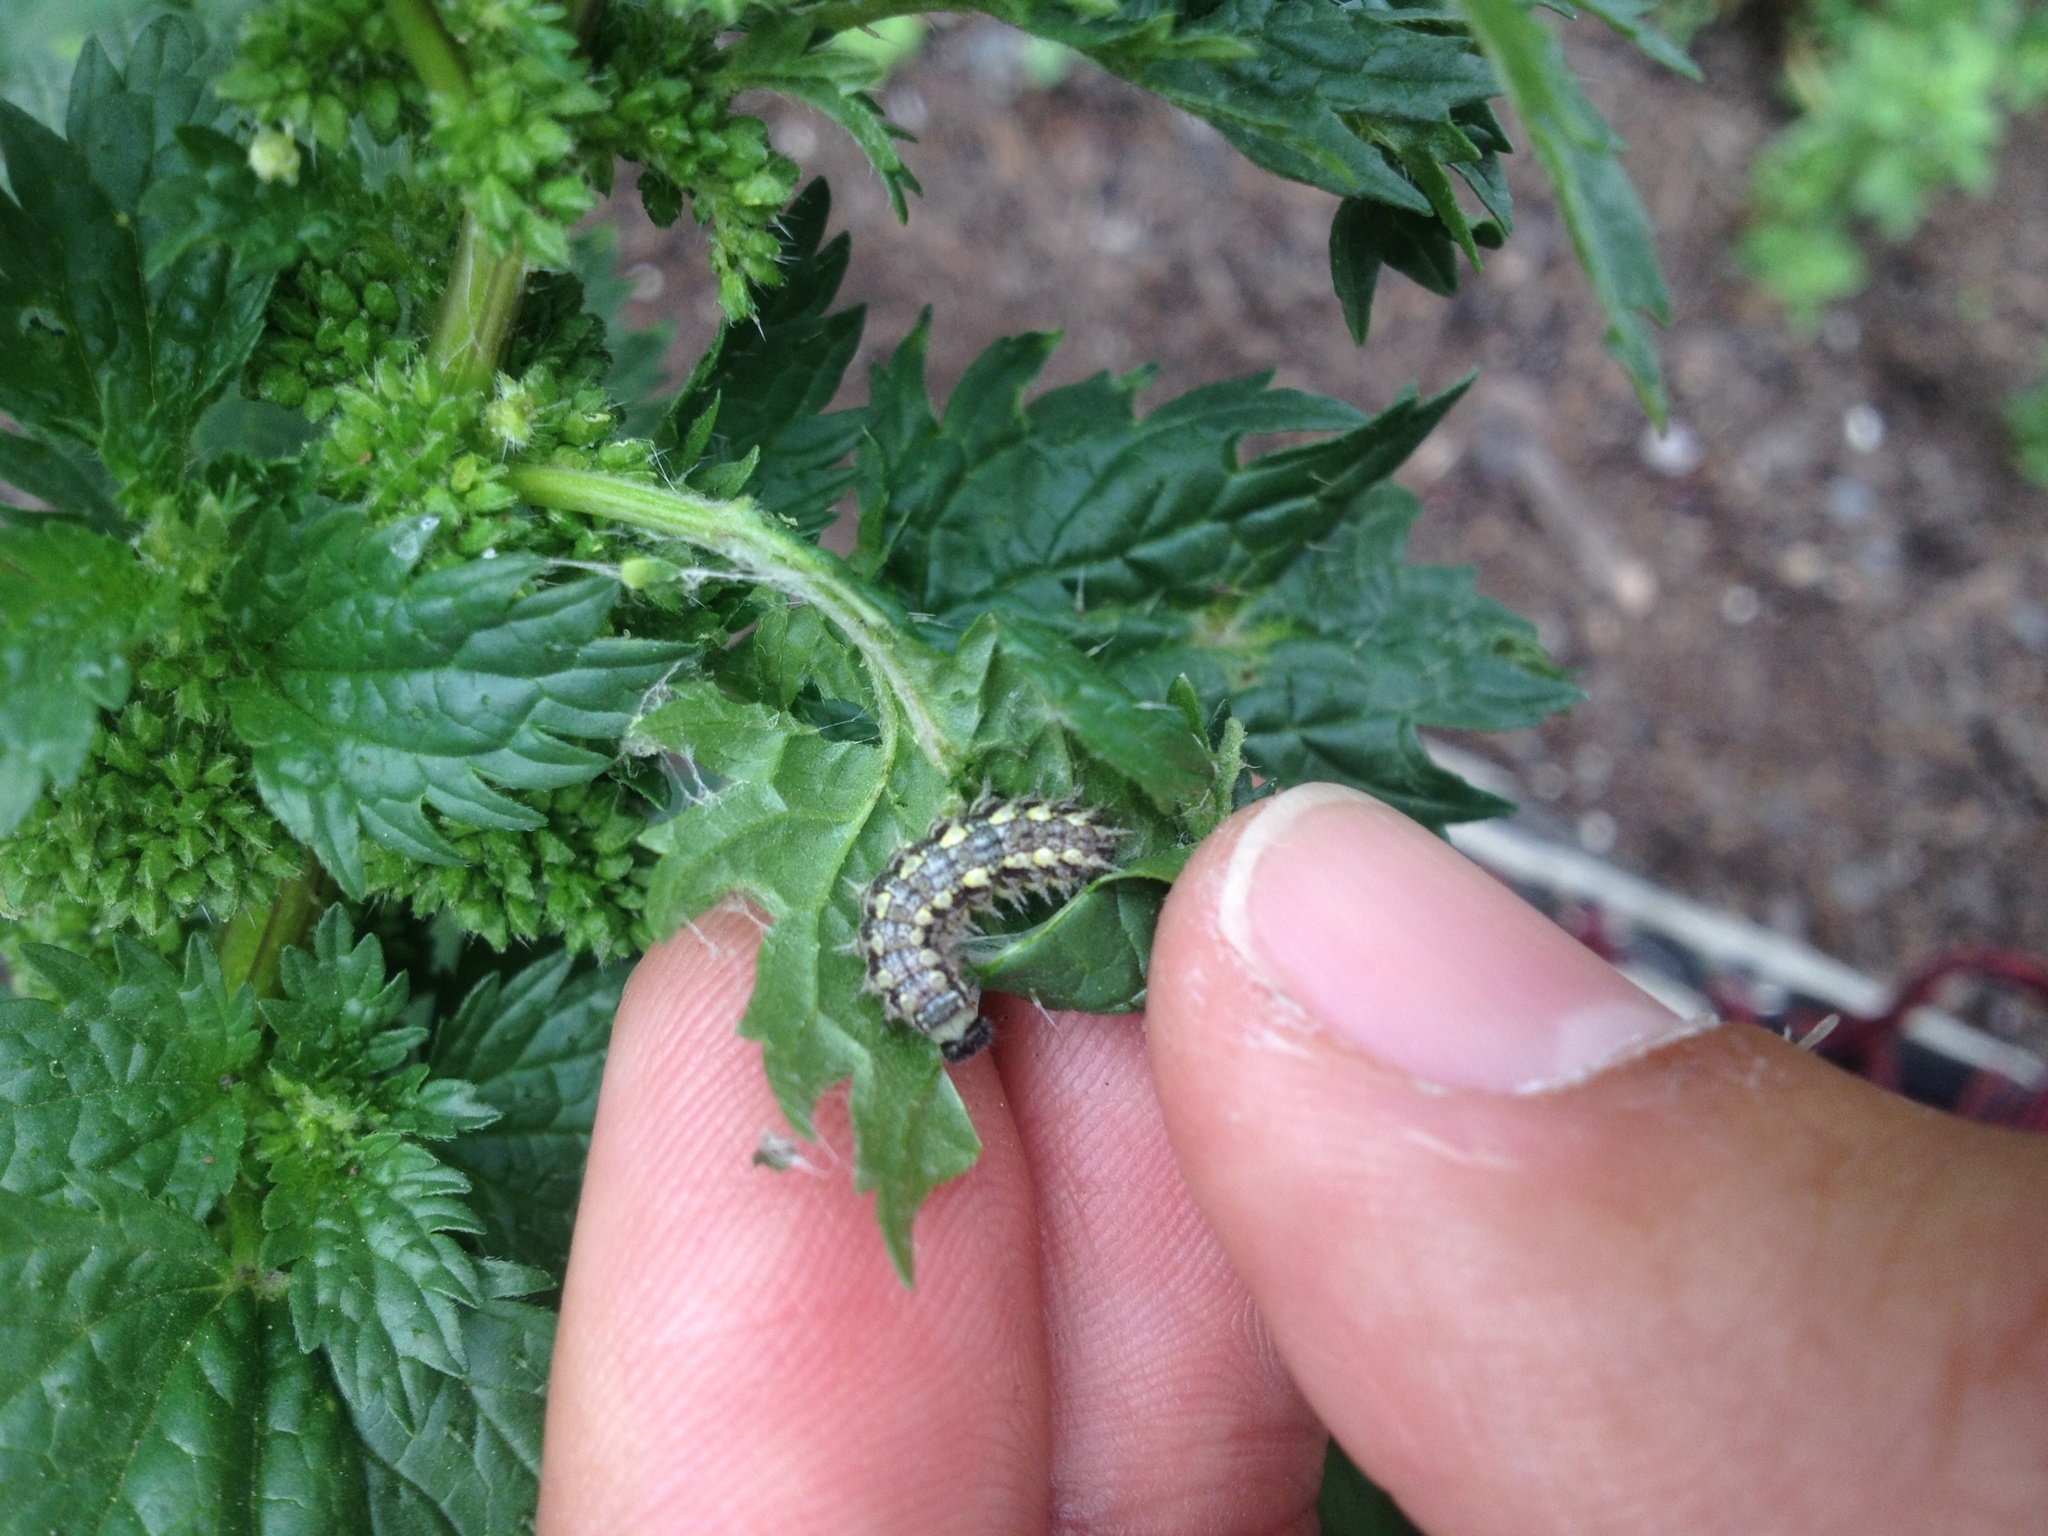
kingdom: Animalia
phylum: Arthropoda
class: Insecta
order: Lepidoptera
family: Nymphalidae
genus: Vanessa
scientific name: Vanessa itea
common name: Yellow admiral
